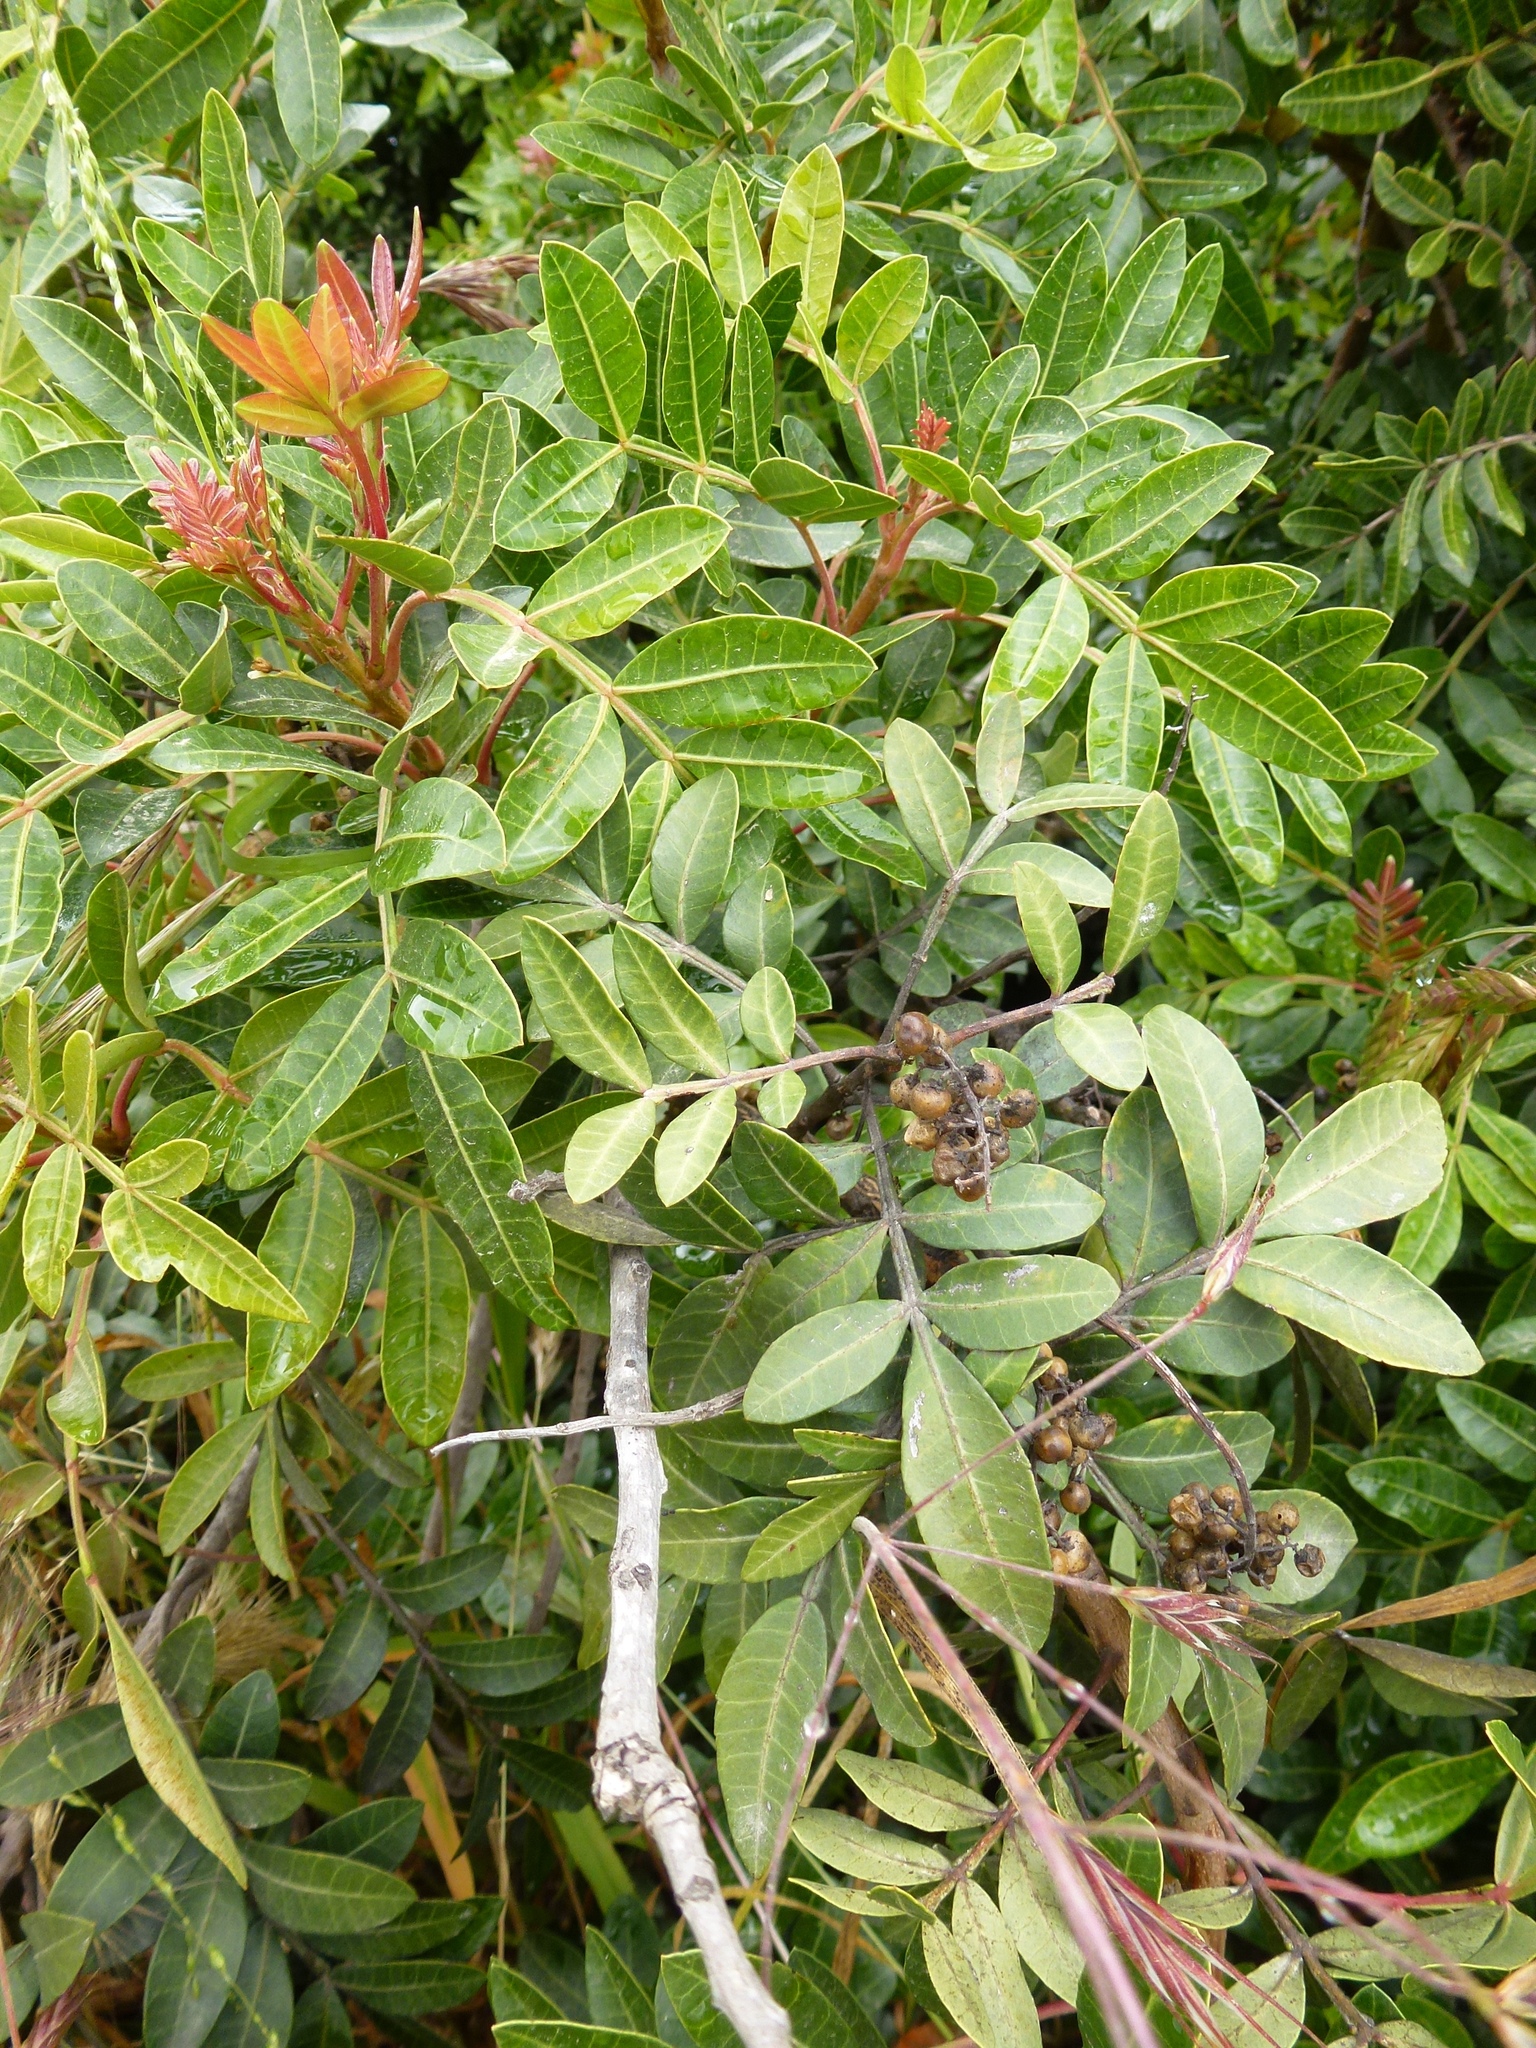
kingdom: Plantae
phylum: Tracheophyta
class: Magnoliopsida
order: Sapindales
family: Anacardiaceae
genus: Schinus
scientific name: Schinus terebinthifolia
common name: Brazilian peppertree
